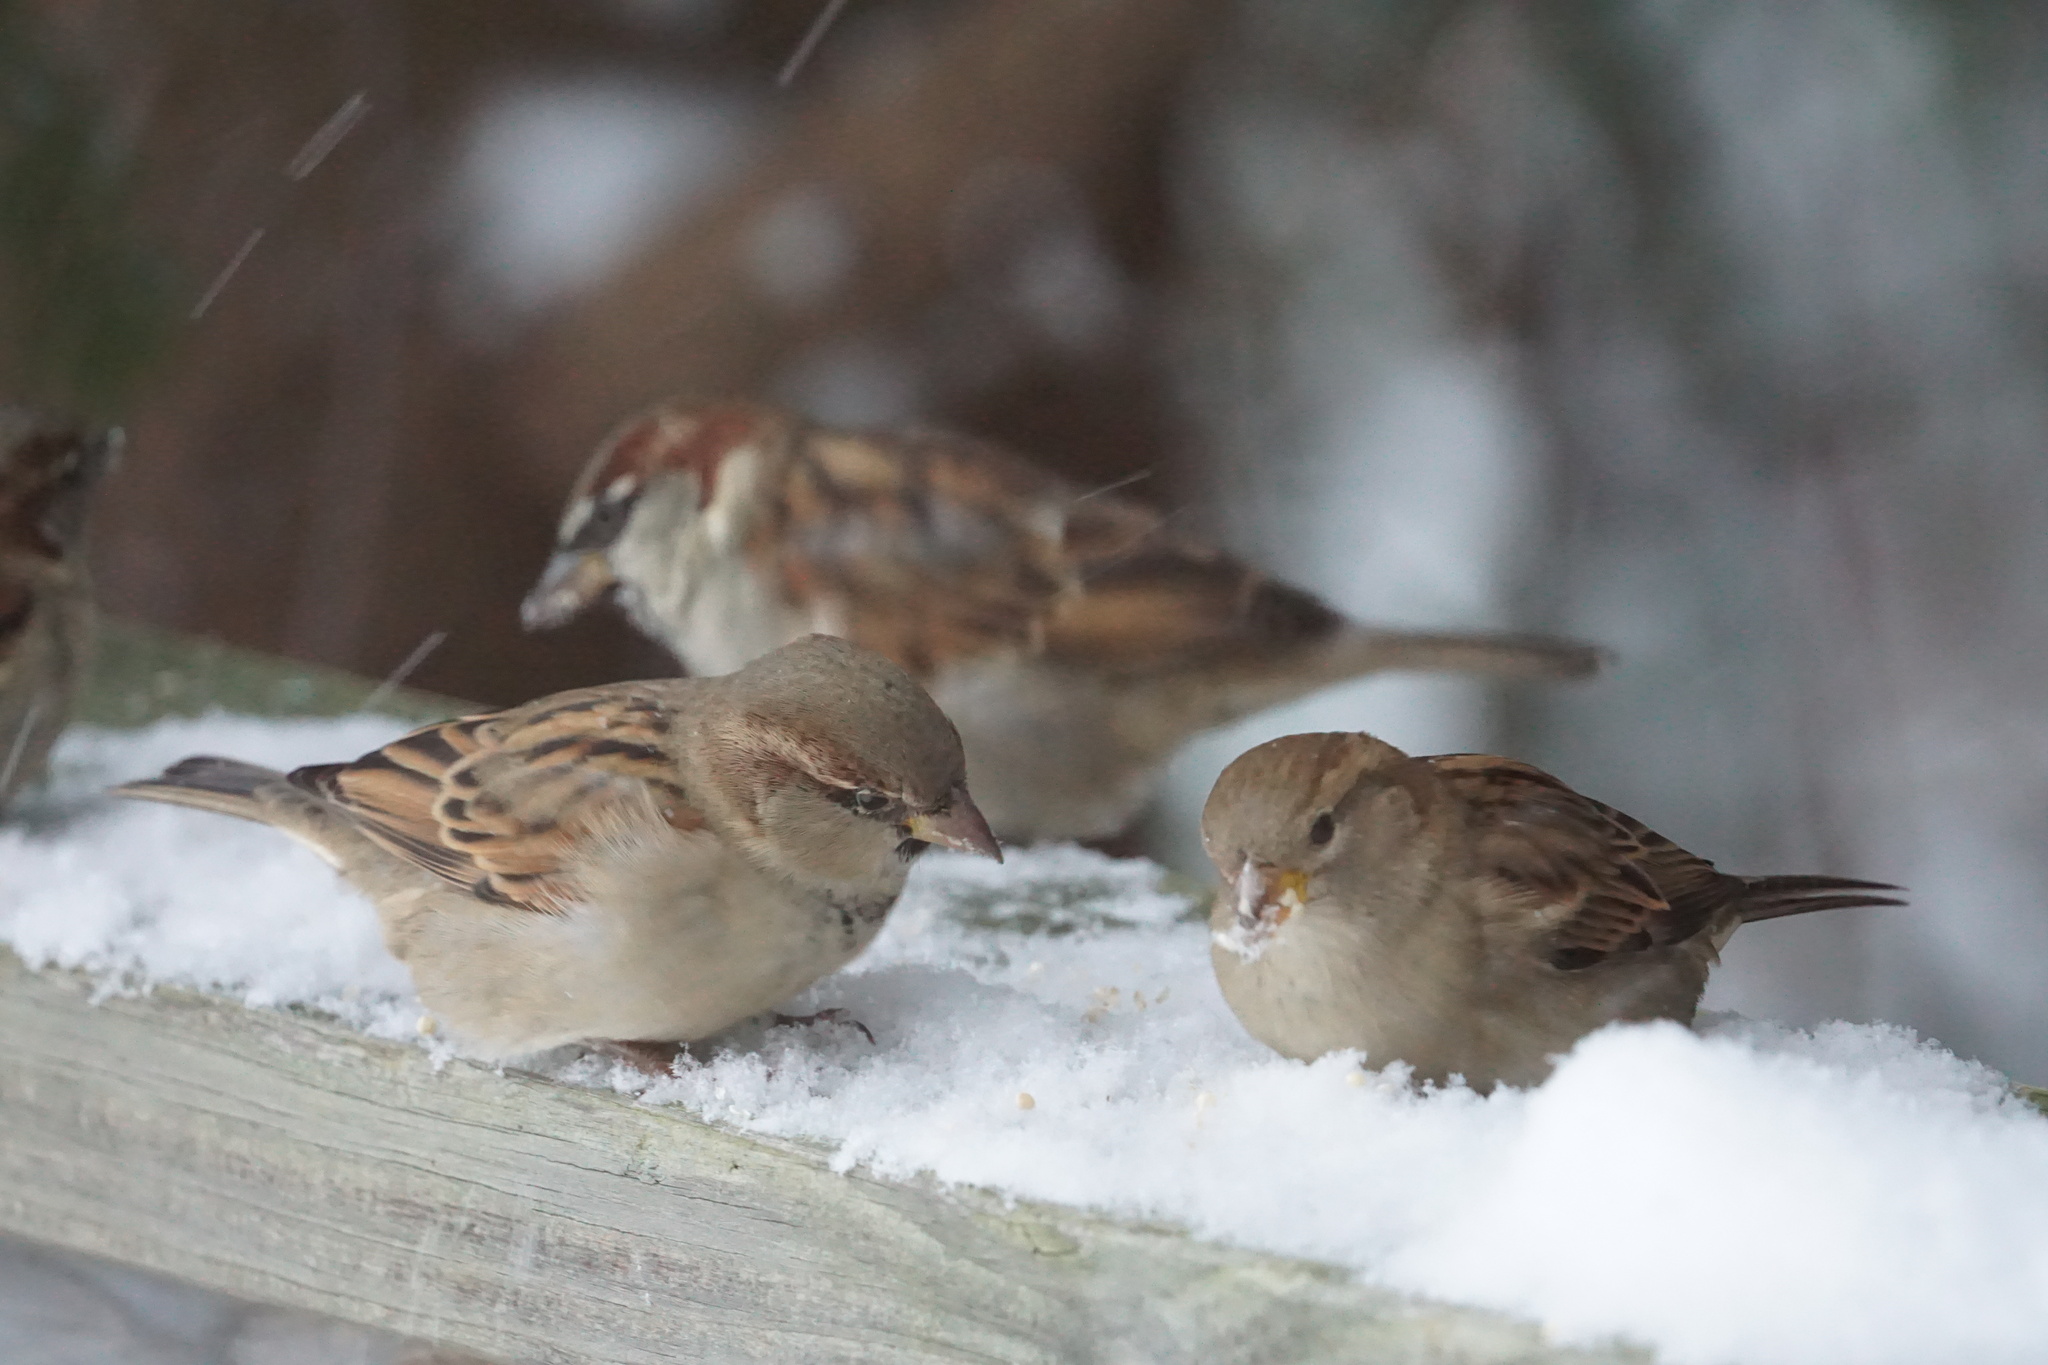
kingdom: Animalia
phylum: Chordata
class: Aves
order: Passeriformes
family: Passeridae
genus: Passer
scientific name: Passer domesticus
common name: House sparrow
